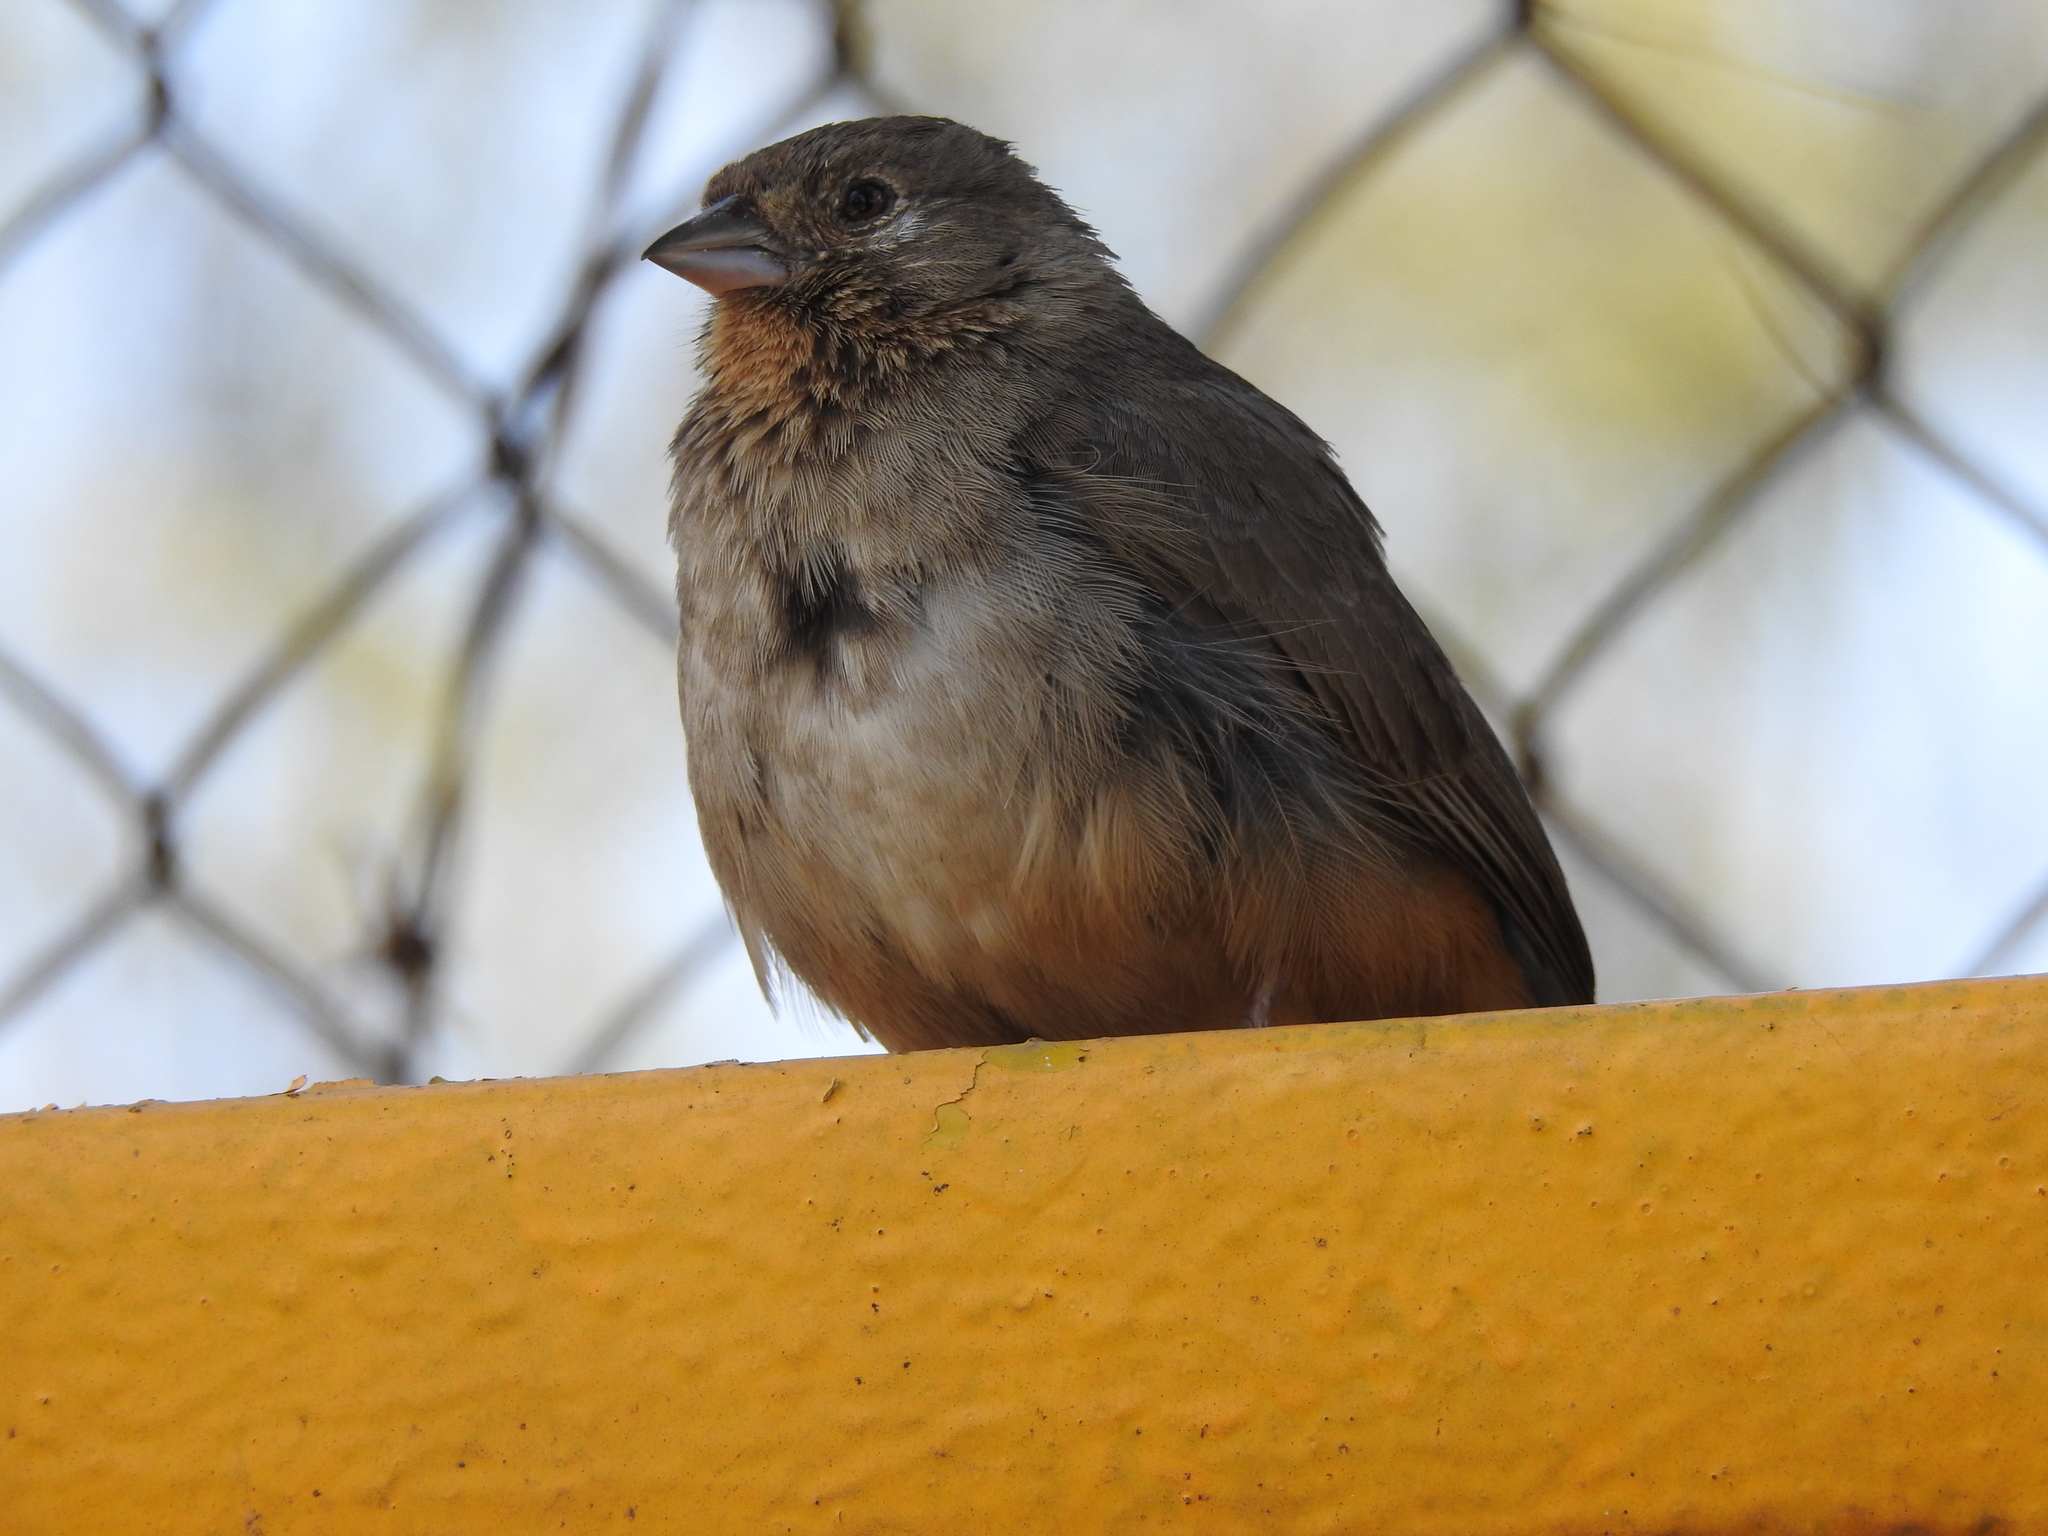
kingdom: Animalia
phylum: Chordata
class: Aves
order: Passeriformes
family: Passerellidae
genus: Melozone
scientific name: Melozone fusca
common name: Canyon towhee
